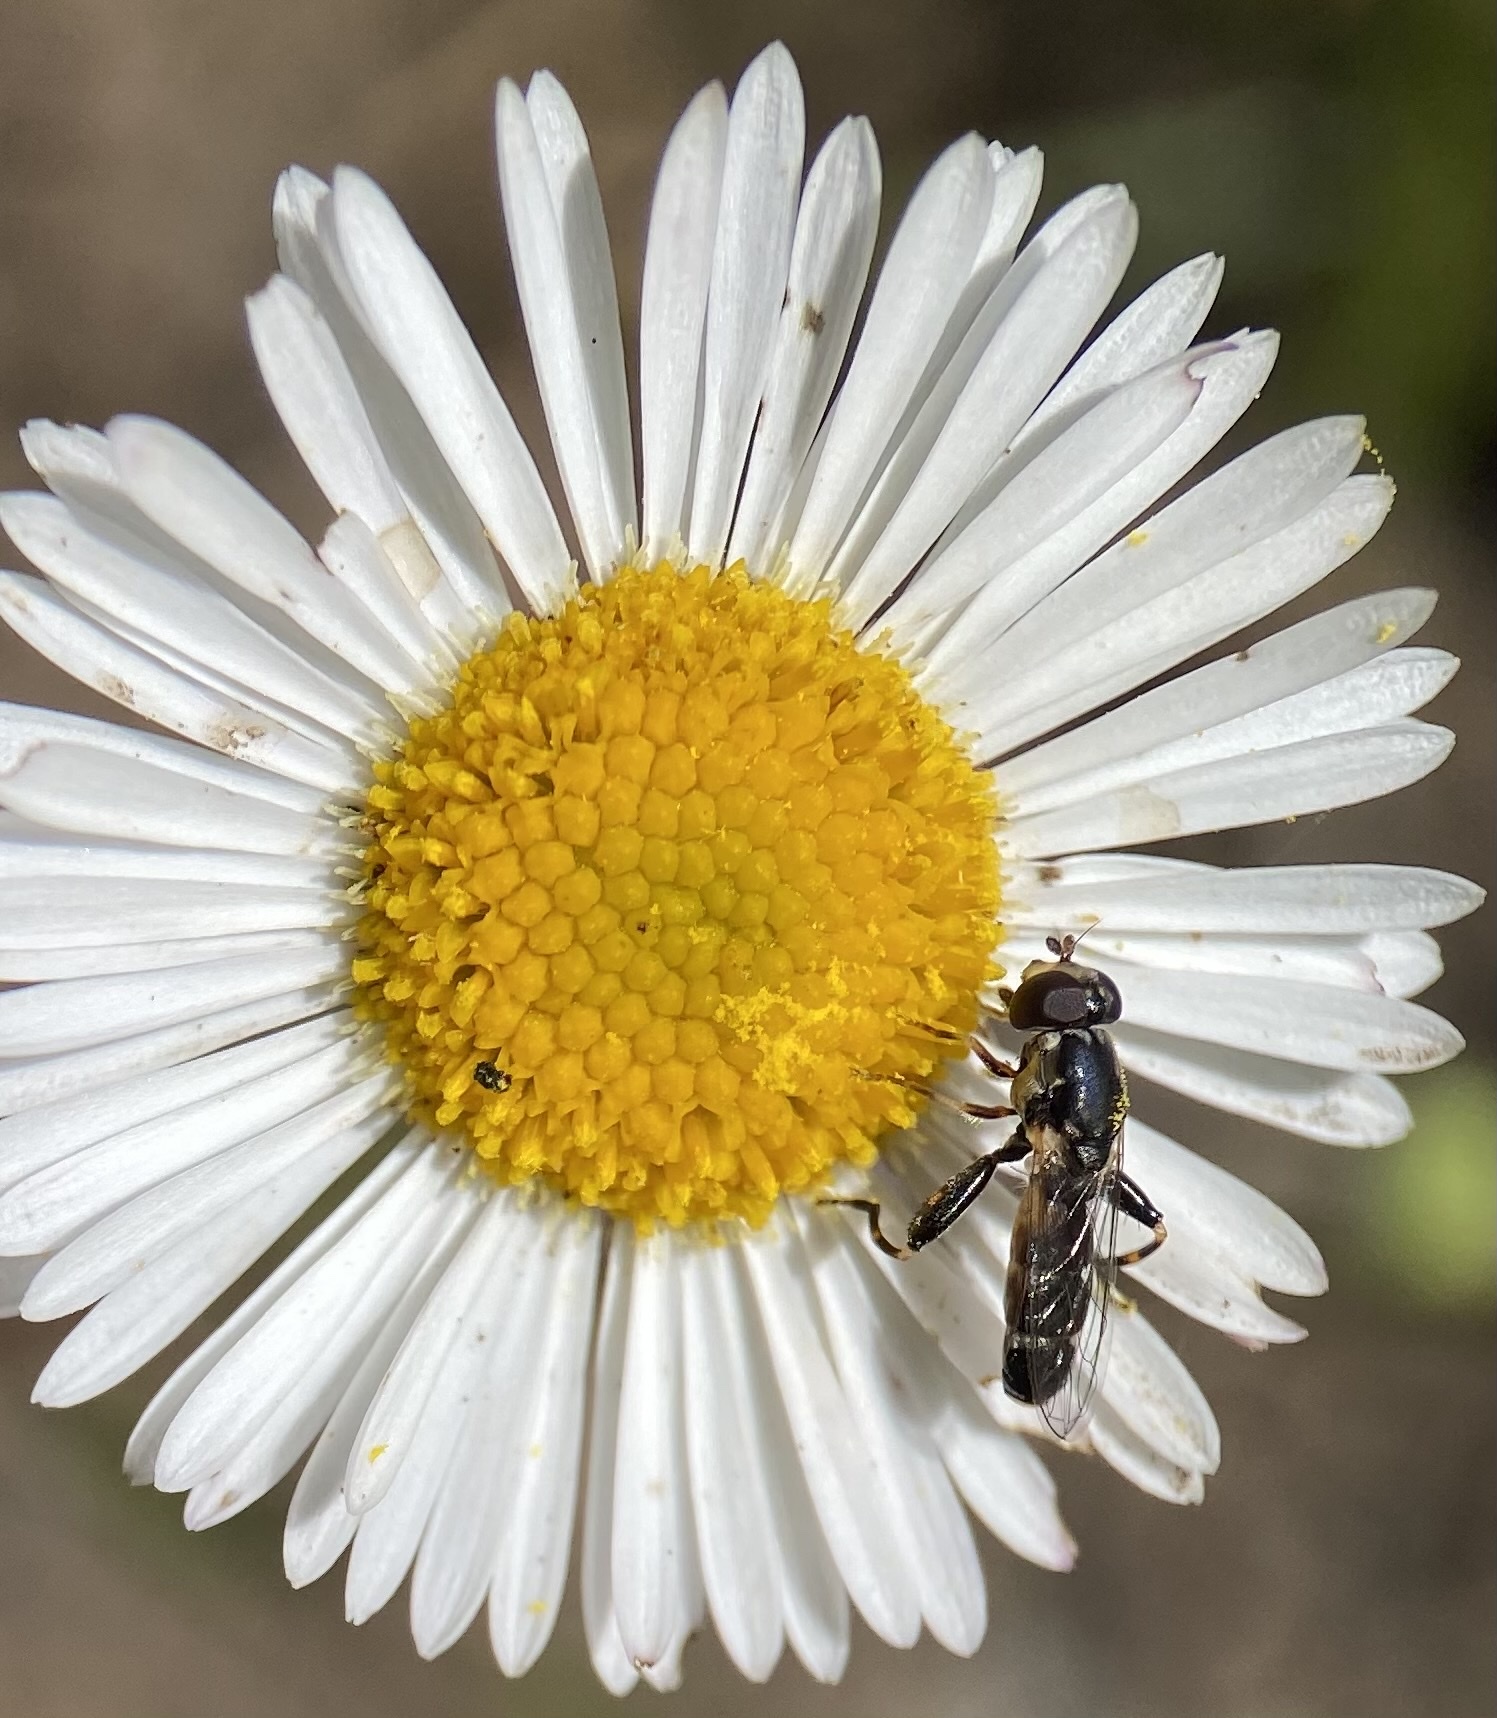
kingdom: Animalia
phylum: Arthropoda
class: Insecta
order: Diptera
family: Syrphidae
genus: Syritta
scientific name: Syritta pipiens
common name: Hover fly
